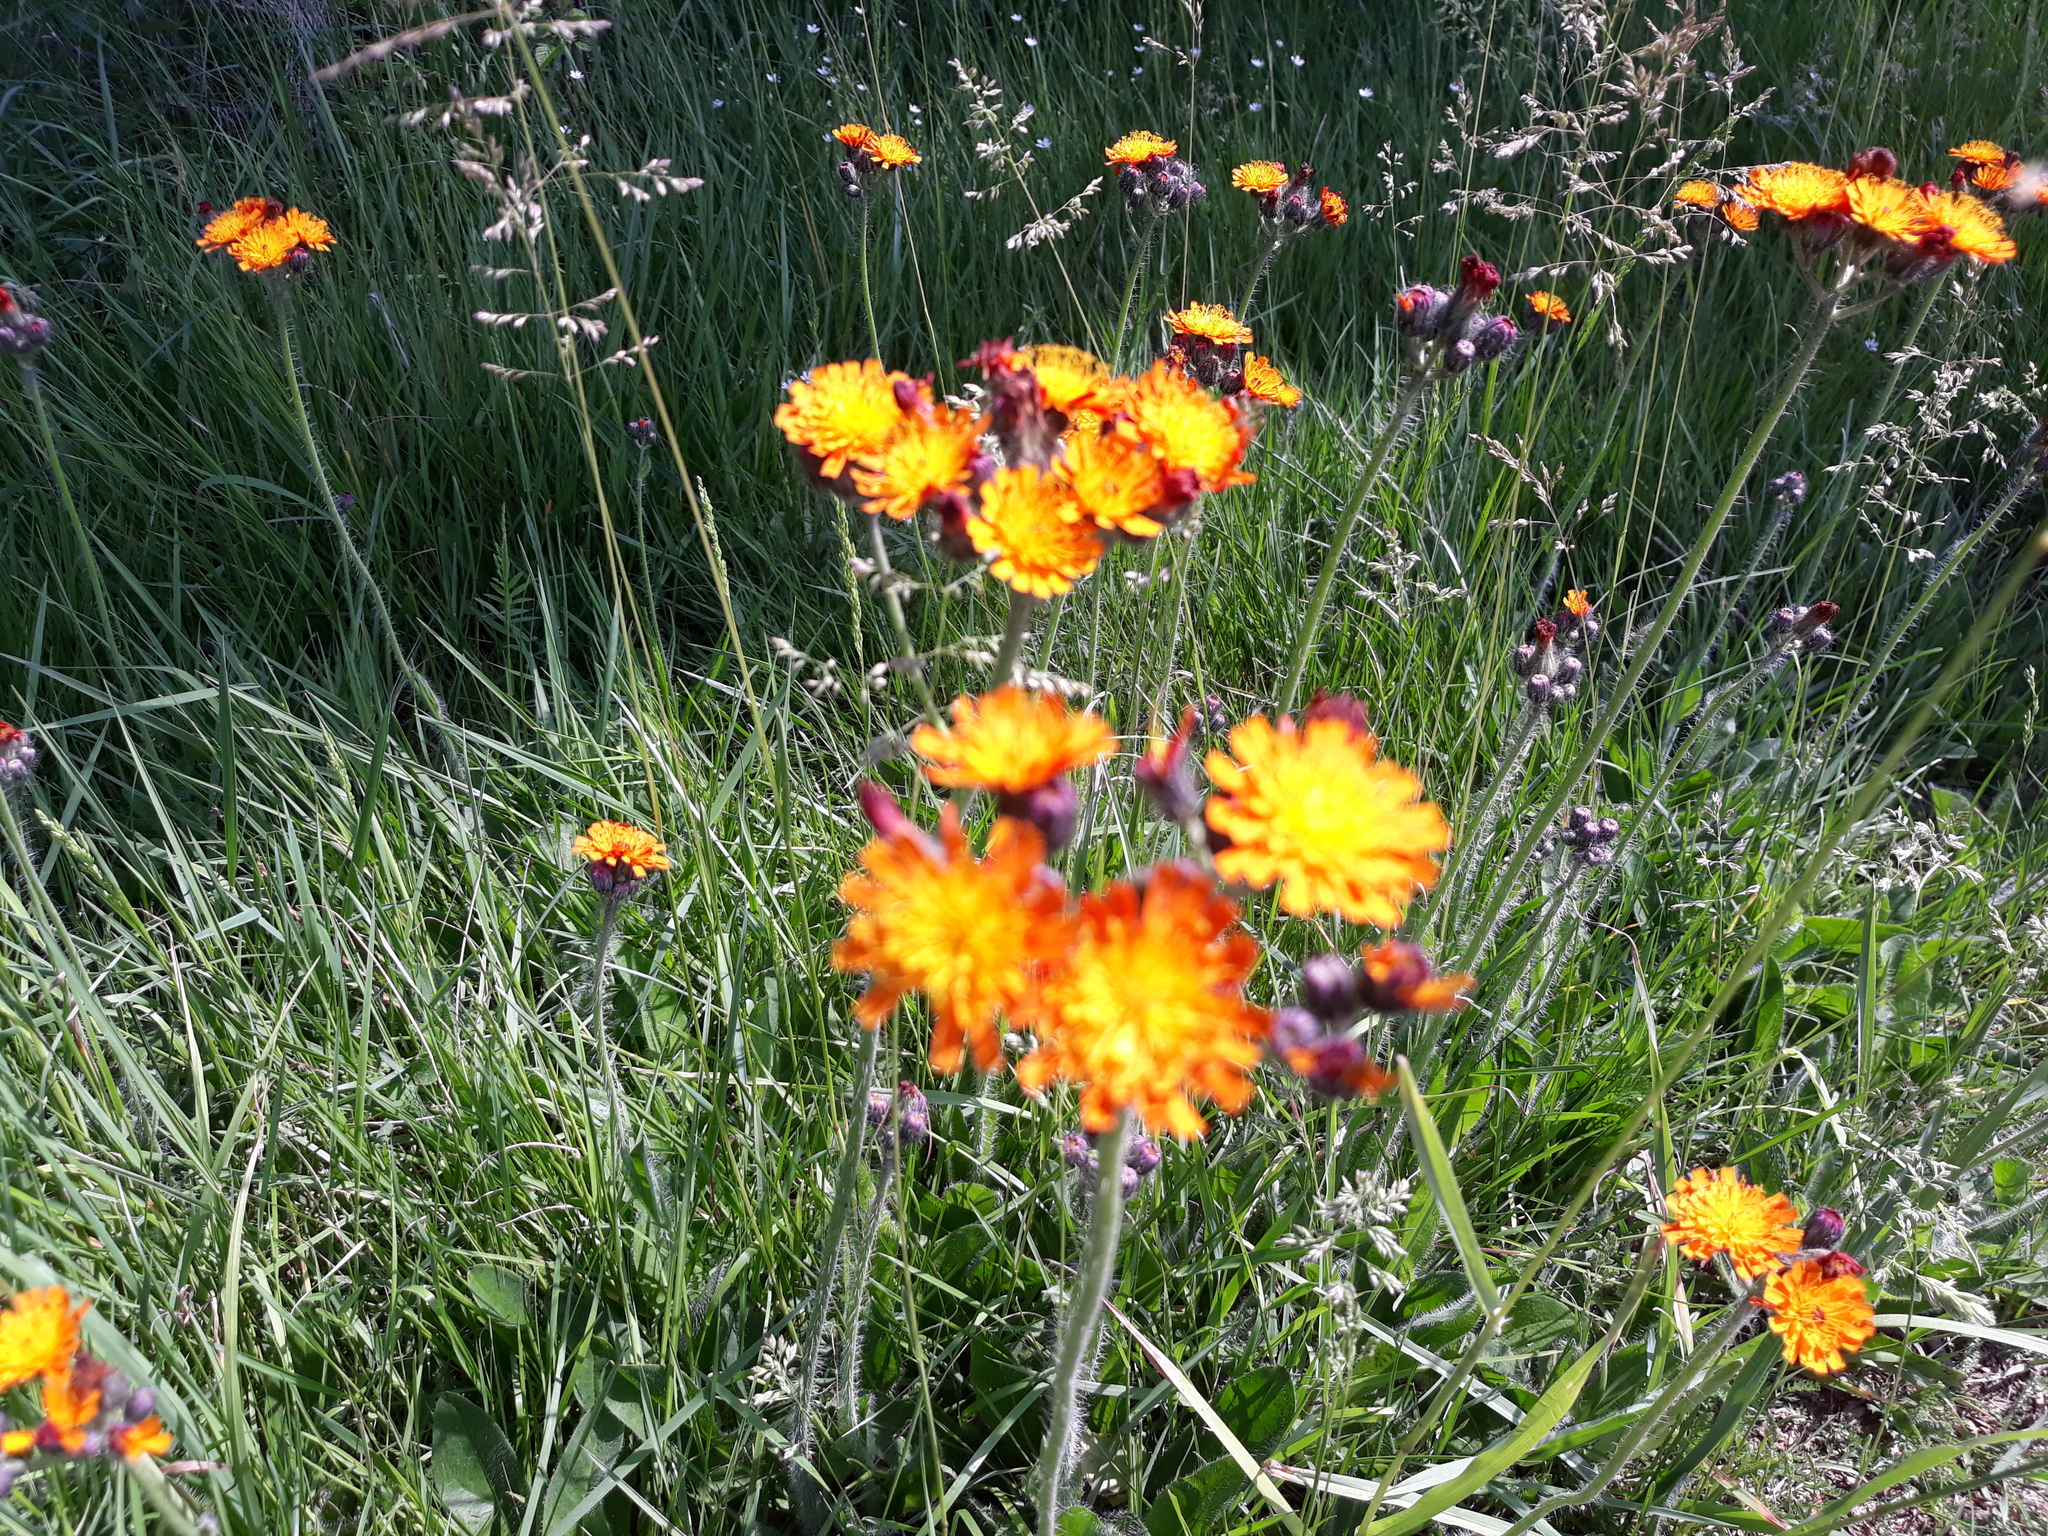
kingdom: Plantae
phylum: Tracheophyta
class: Magnoliopsida
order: Asterales
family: Asteraceae
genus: Pilosella
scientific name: Pilosella aurantiaca
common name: Fox-and-cubs
